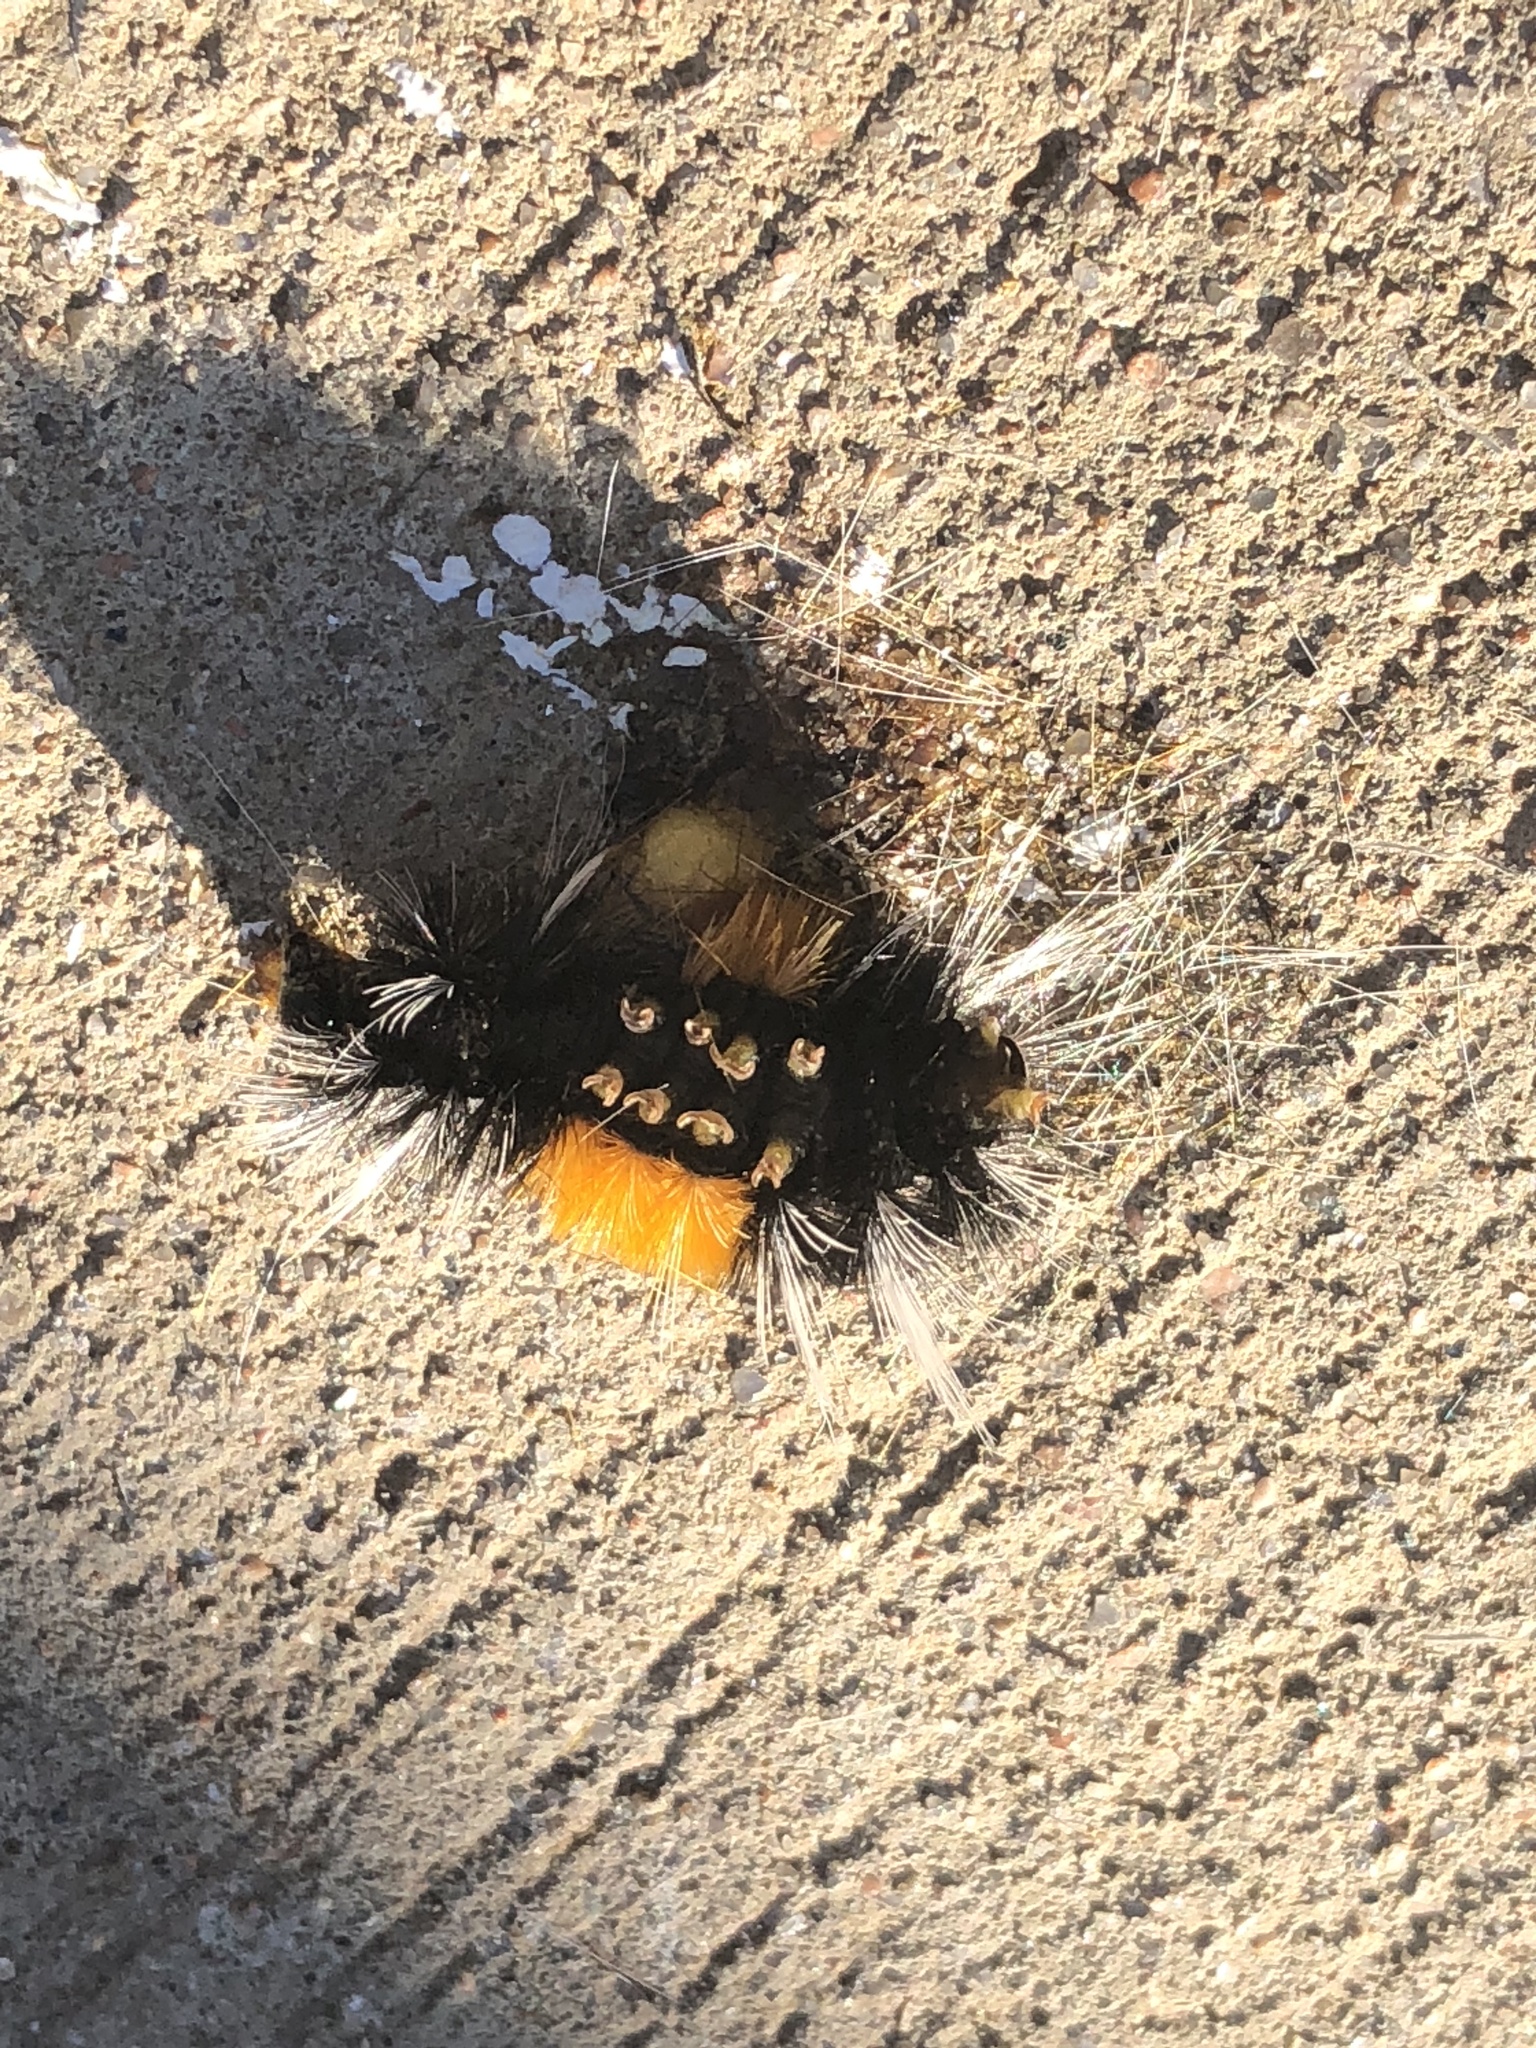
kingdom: Animalia
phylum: Arthropoda
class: Insecta
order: Lepidoptera
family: Erebidae
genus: Lophocampa
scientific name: Lophocampa maculata
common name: Spotted tussock moth
